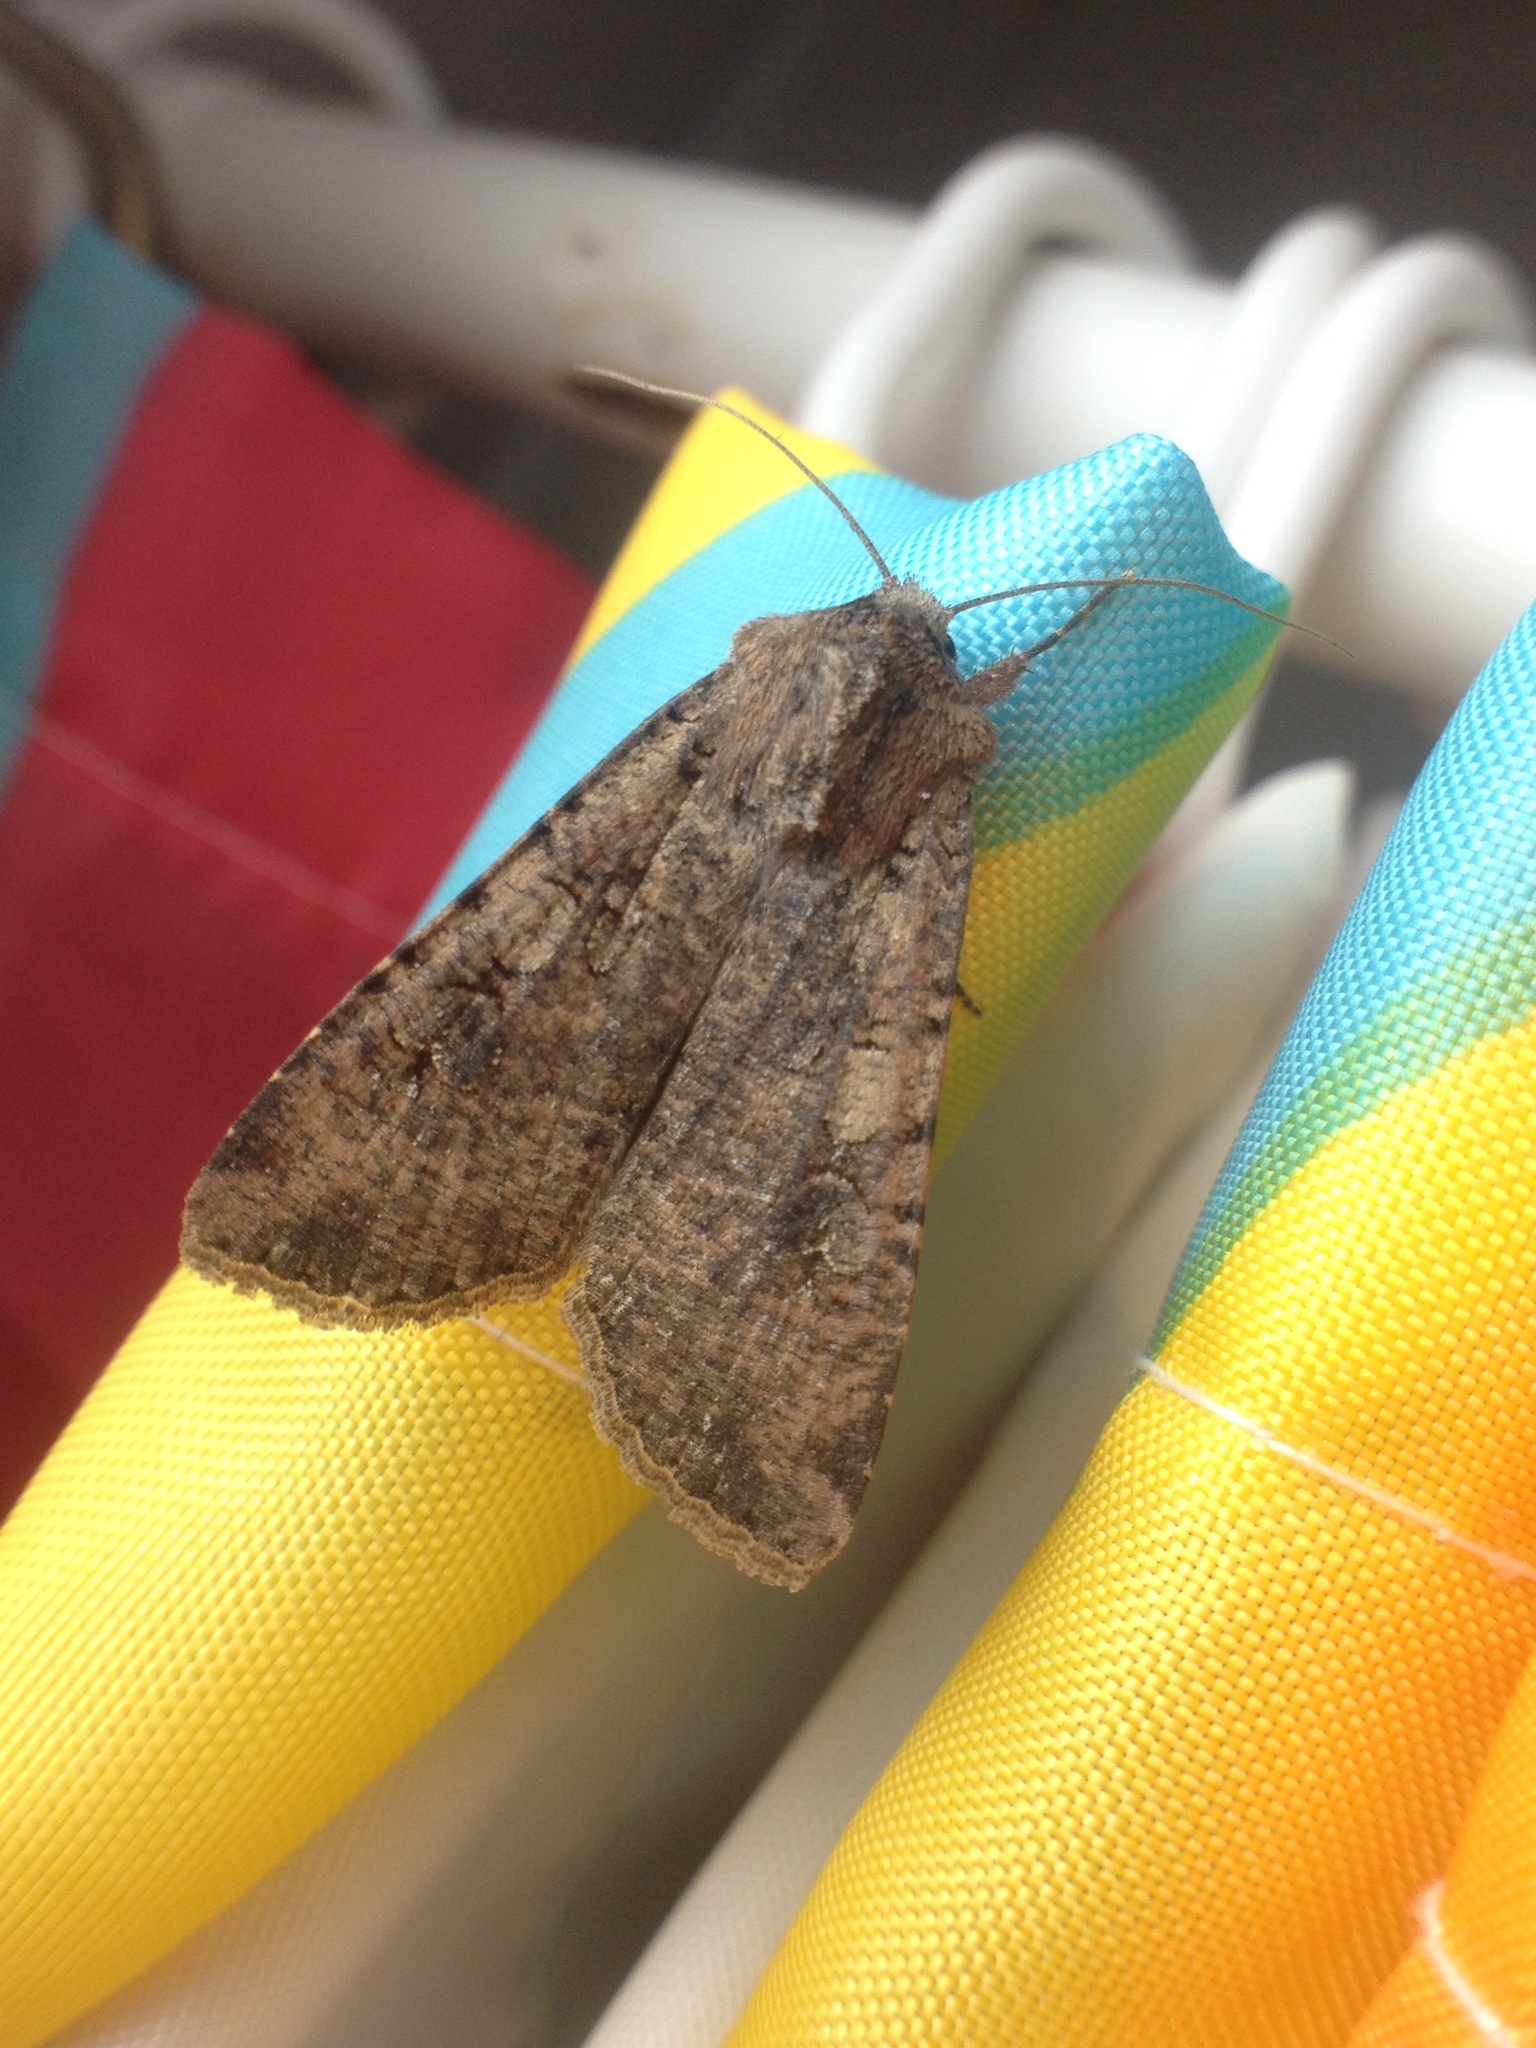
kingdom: Animalia
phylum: Arthropoda
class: Insecta
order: Lepidoptera
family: Noctuidae
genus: Peridroma
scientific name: Peridroma saucia
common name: Pearly underwing
